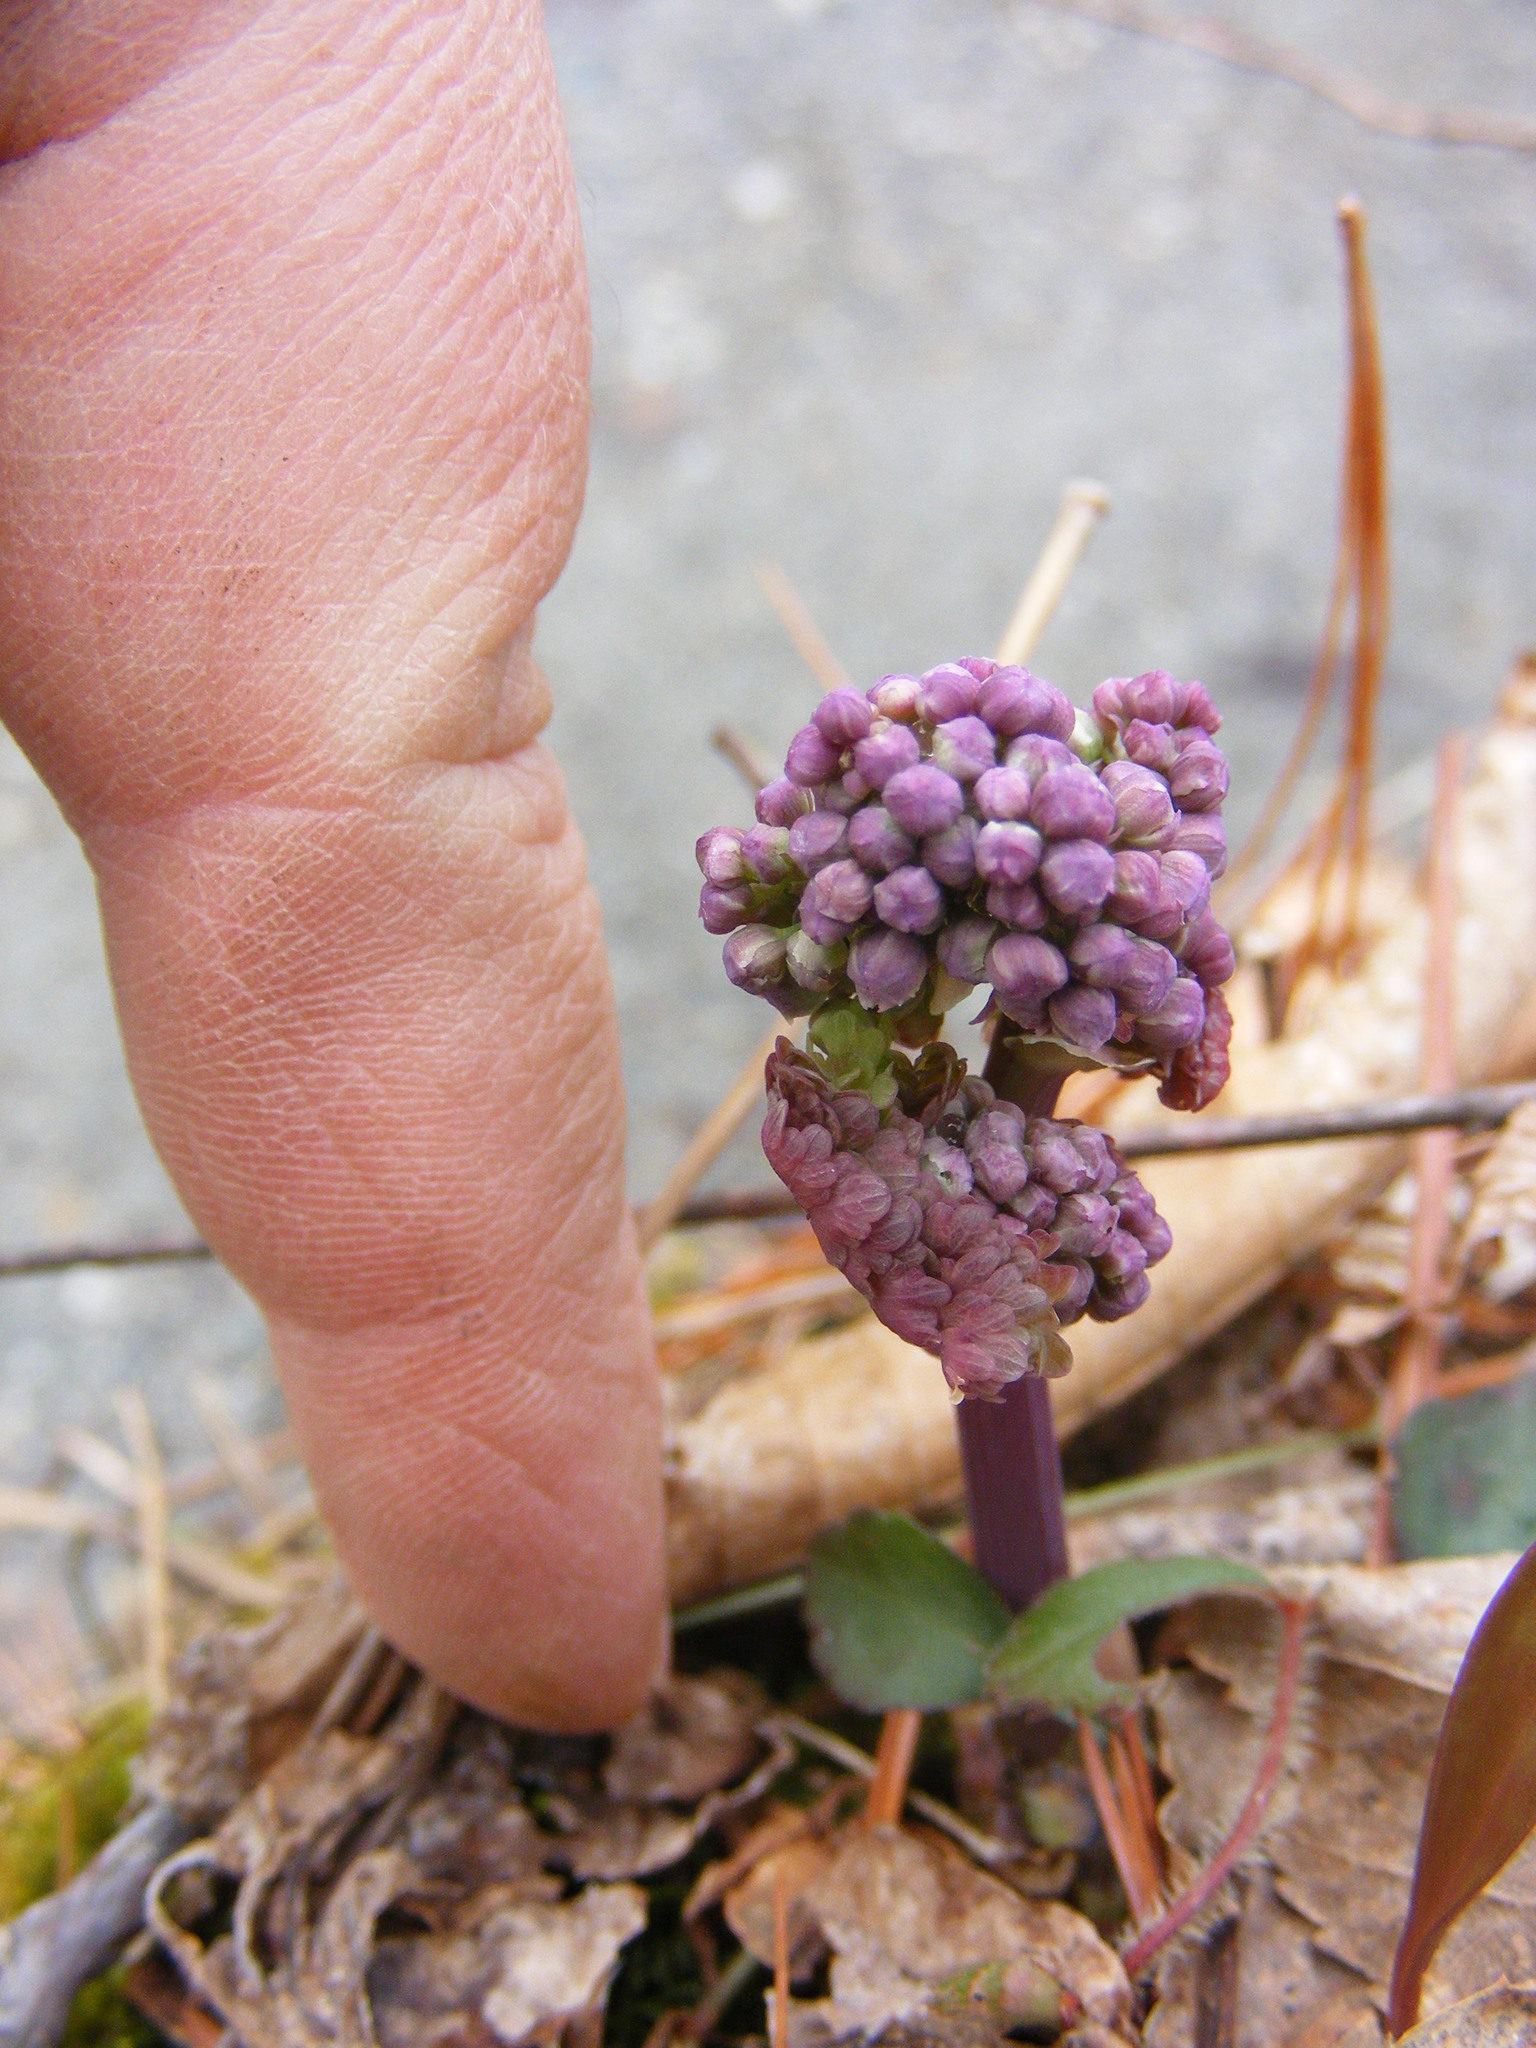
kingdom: Plantae
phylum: Tracheophyta
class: Magnoliopsida
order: Ranunculales
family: Ranunculaceae
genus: Thalictrum
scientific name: Thalictrum dioicum
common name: Early meadow-rue
